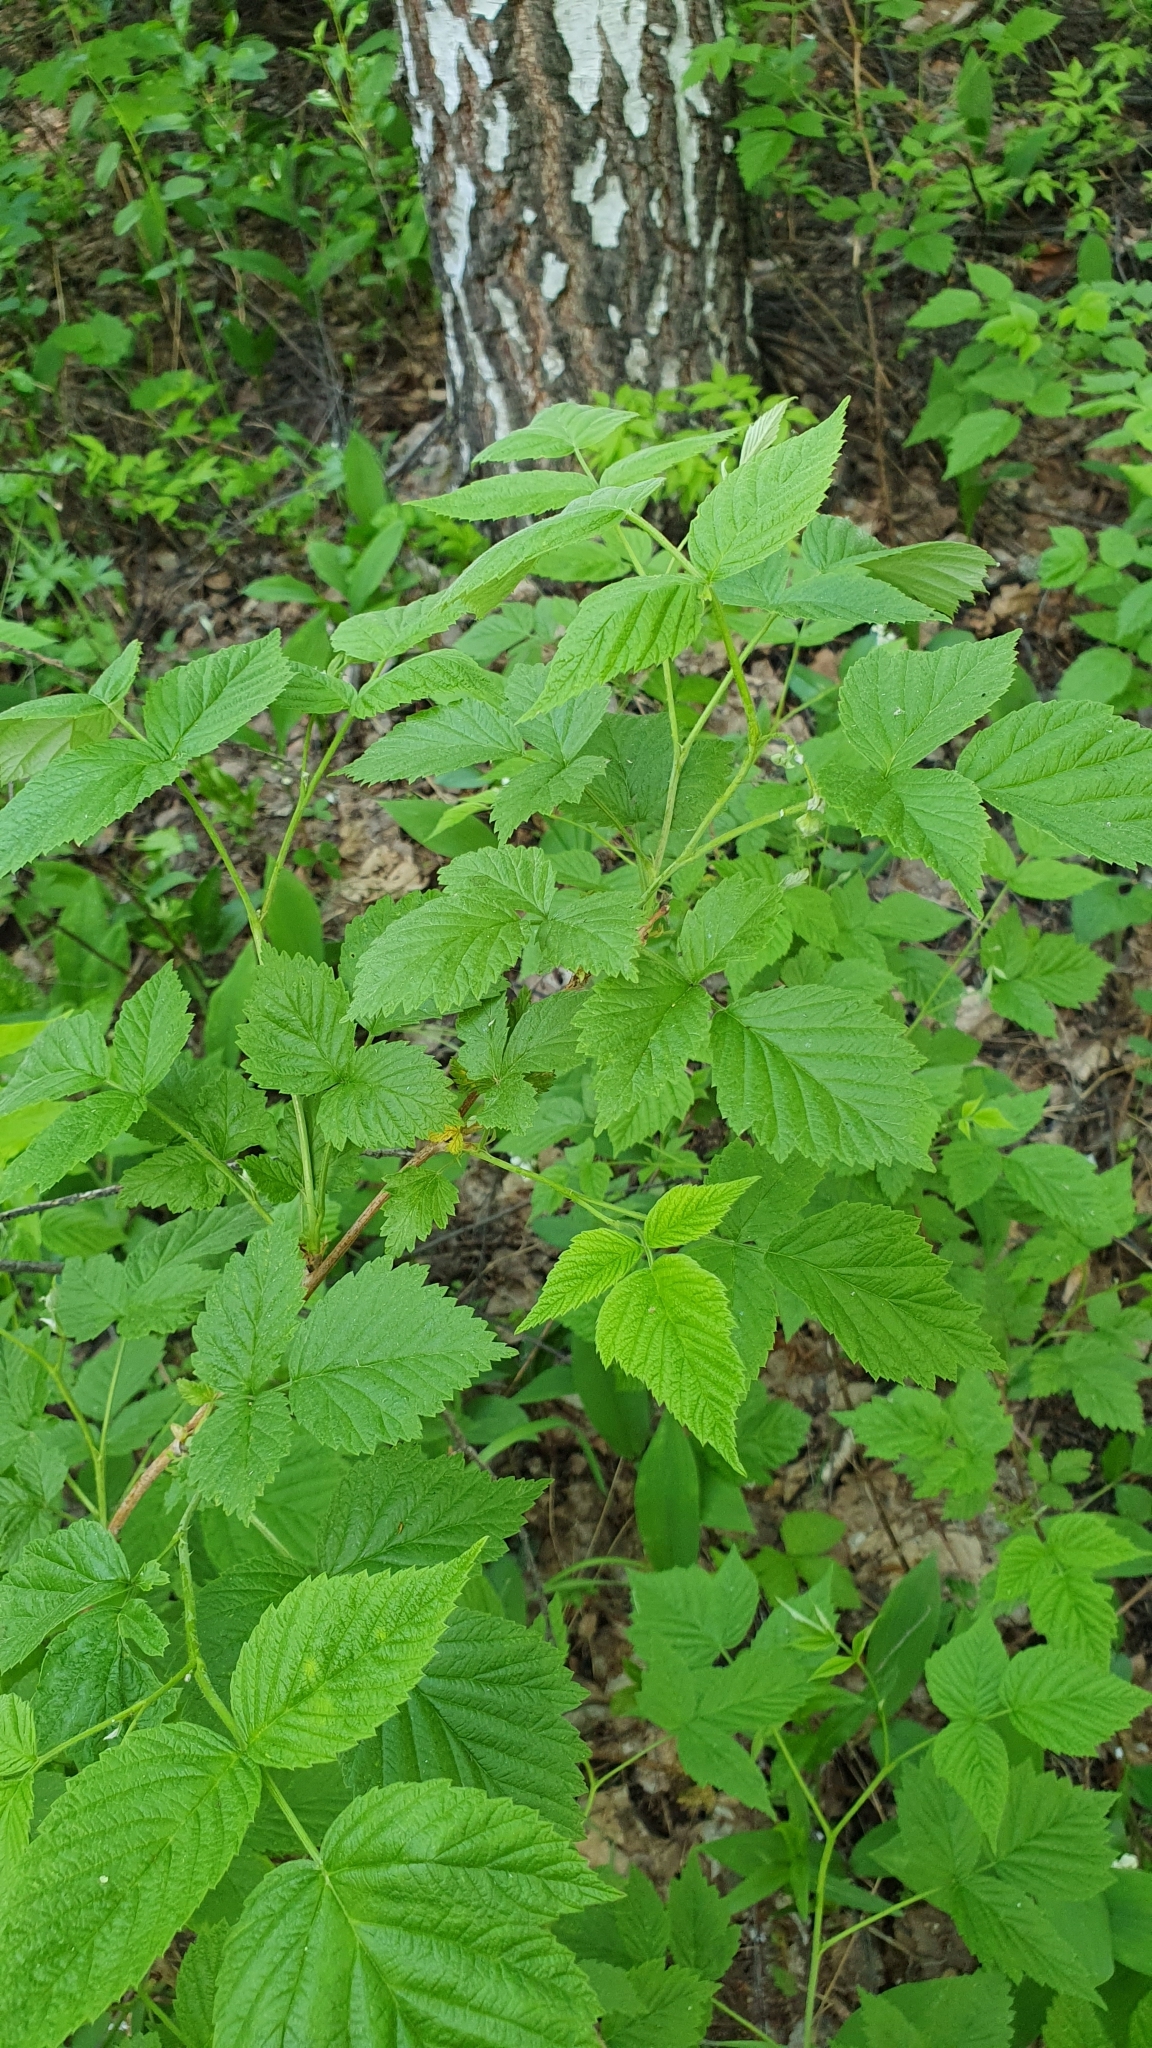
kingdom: Plantae
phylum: Tracheophyta
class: Magnoliopsida
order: Rosales
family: Rosaceae
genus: Rubus
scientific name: Rubus idaeus
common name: Raspberry
